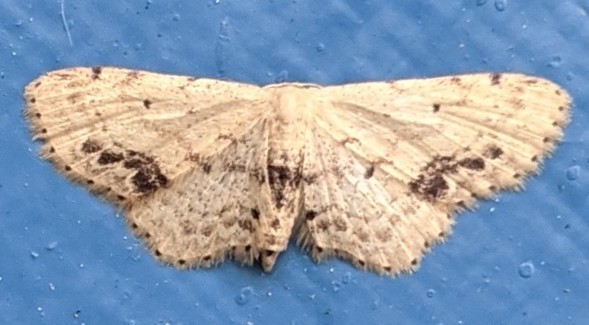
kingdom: Animalia
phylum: Arthropoda
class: Insecta
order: Lepidoptera
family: Geometridae
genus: Idaea
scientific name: Idaea dimidiata
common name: Single-dotted wave
